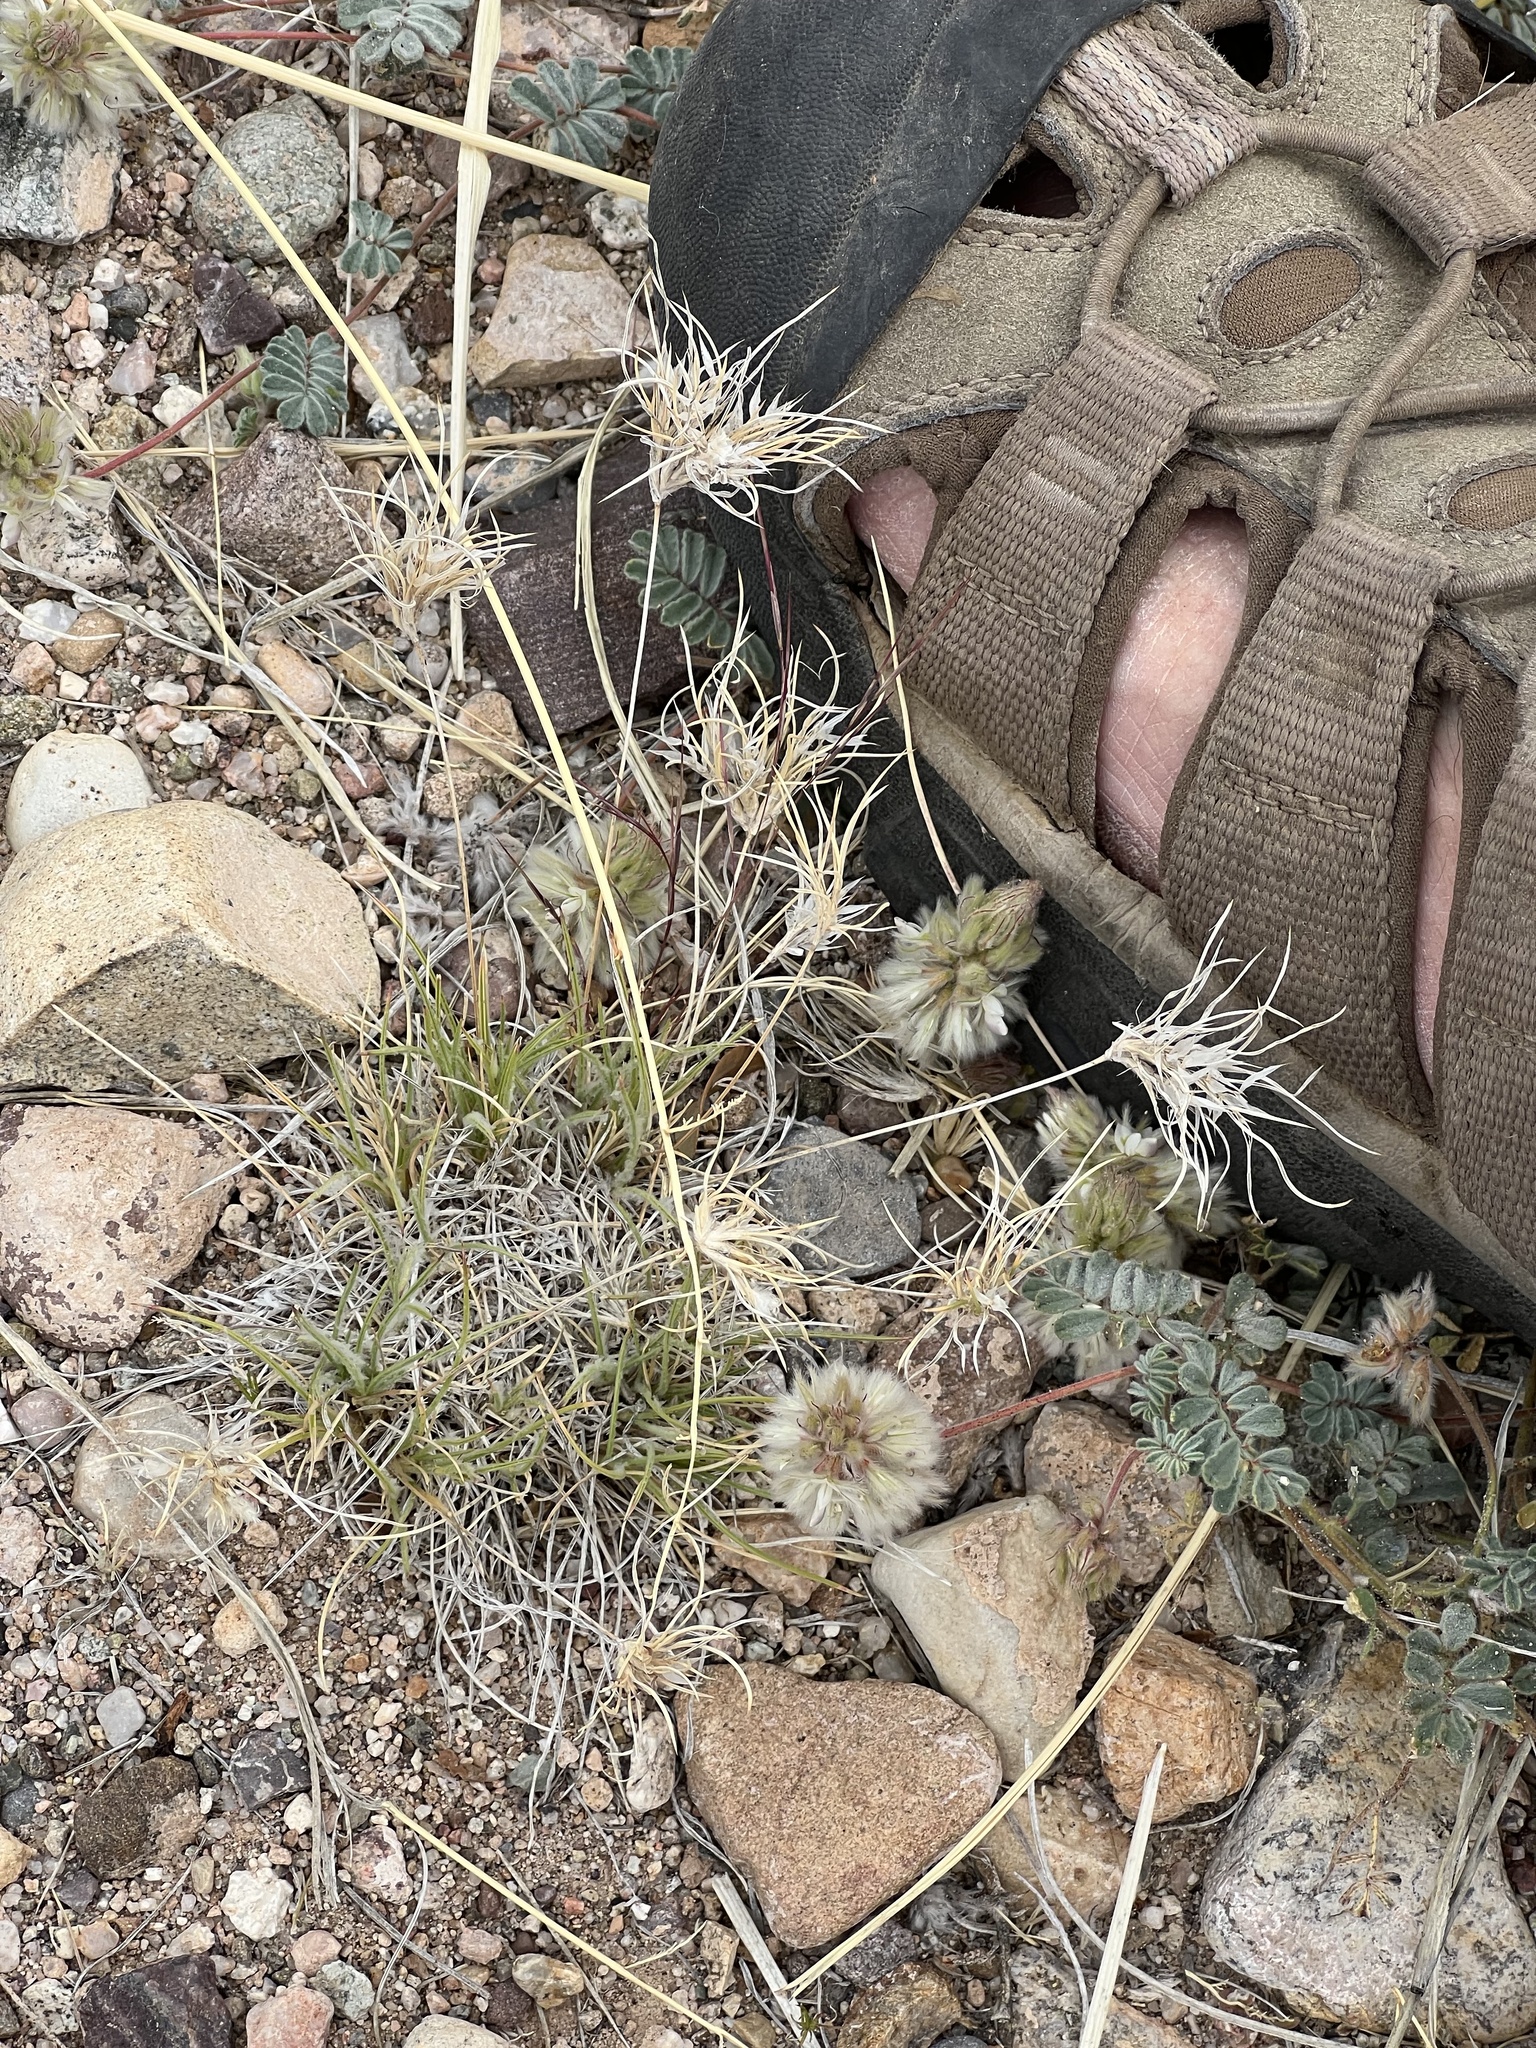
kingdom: Plantae
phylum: Tracheophyta
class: Liliopsida
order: Poales
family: Poaceae
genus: Dasyochloa
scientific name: Dasyochloa pulchella
